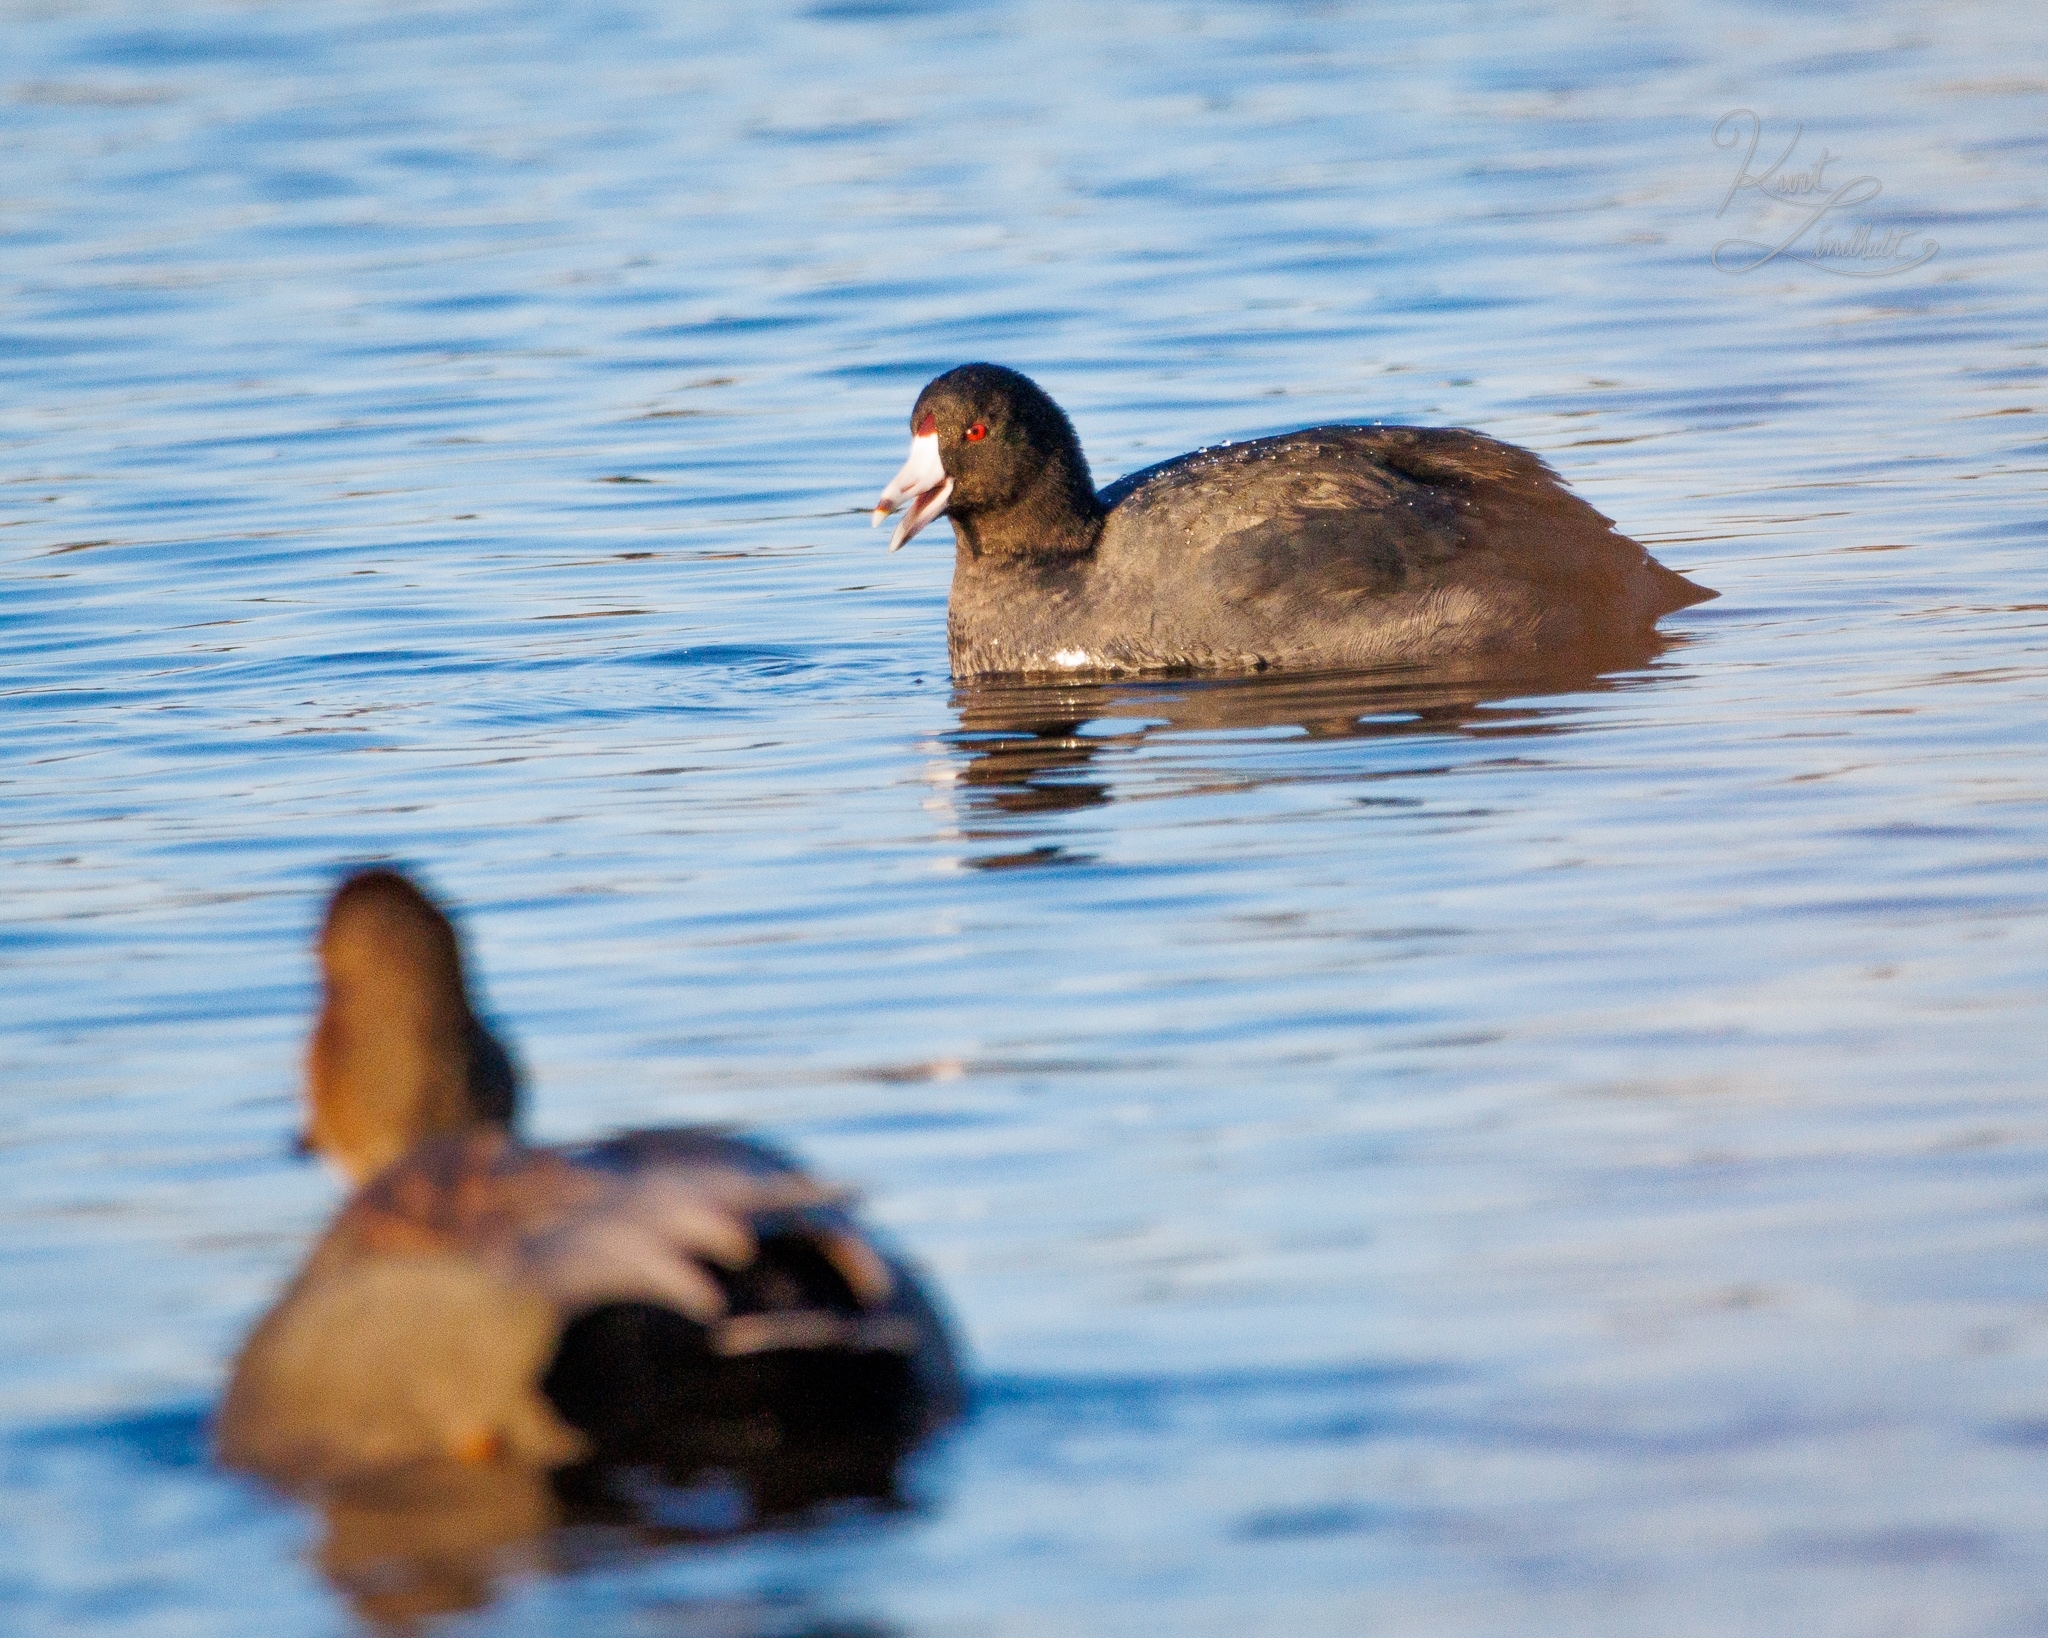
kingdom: Animalia
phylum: Chordata
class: Aves
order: Gruiformes
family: Rallidae
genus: Fulica
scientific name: Fulica americana
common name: American coot
